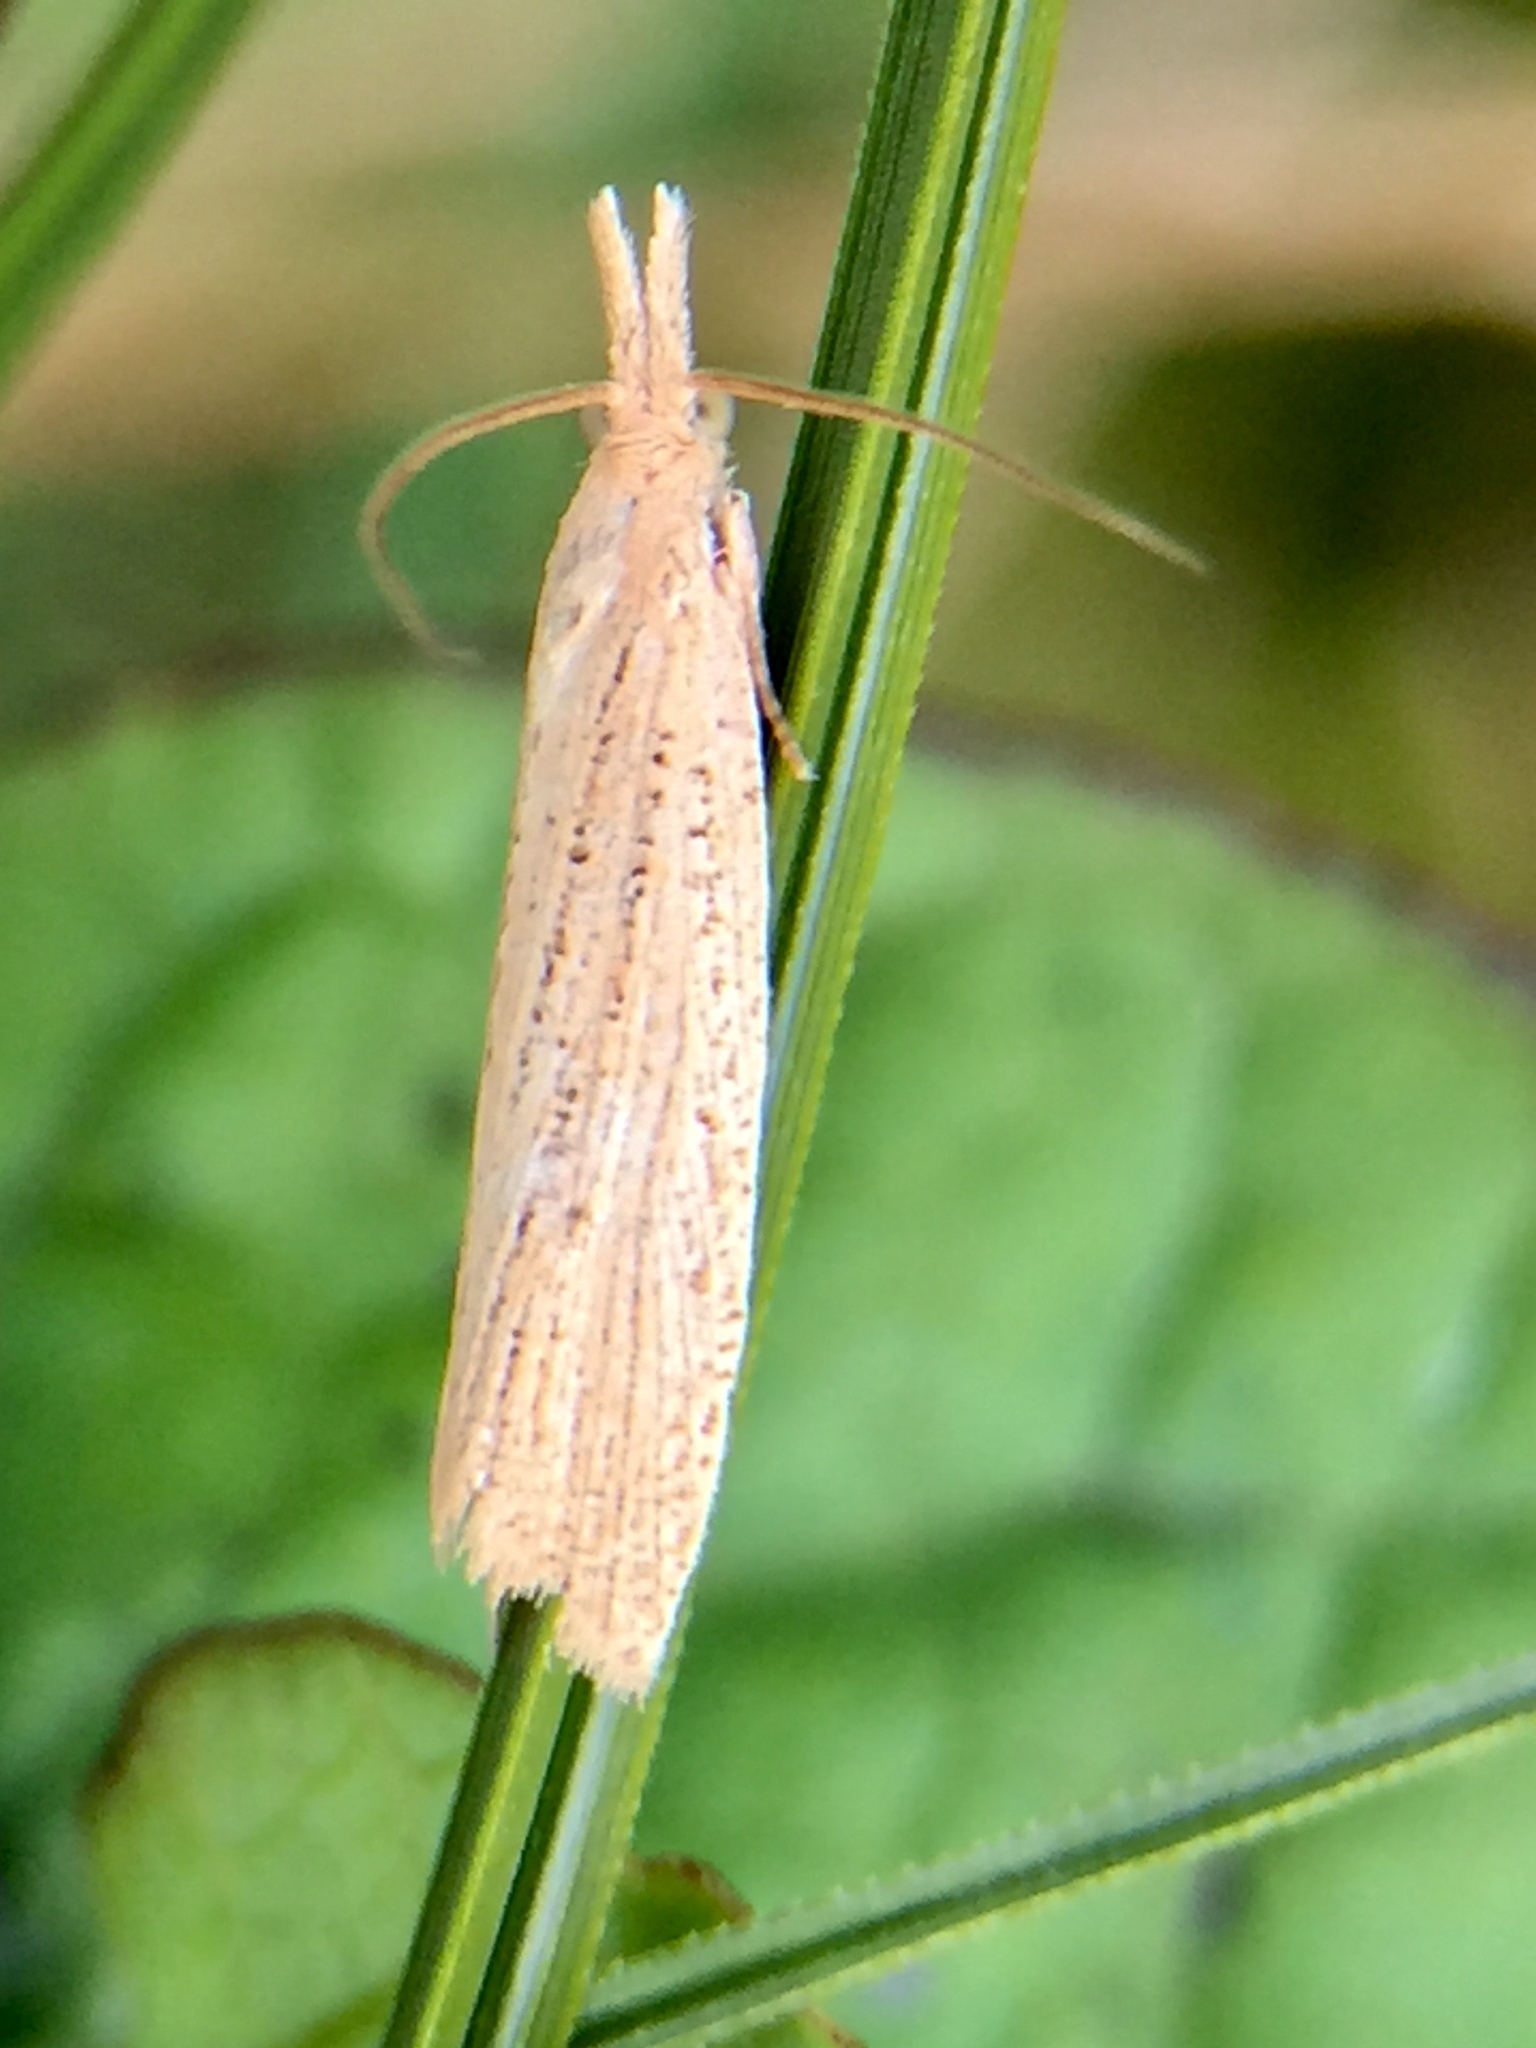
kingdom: Animalia
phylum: Arthropoda
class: Insecta
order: Lepidoptera
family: Tortricidae
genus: Bactra
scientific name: Bactra noteraula
